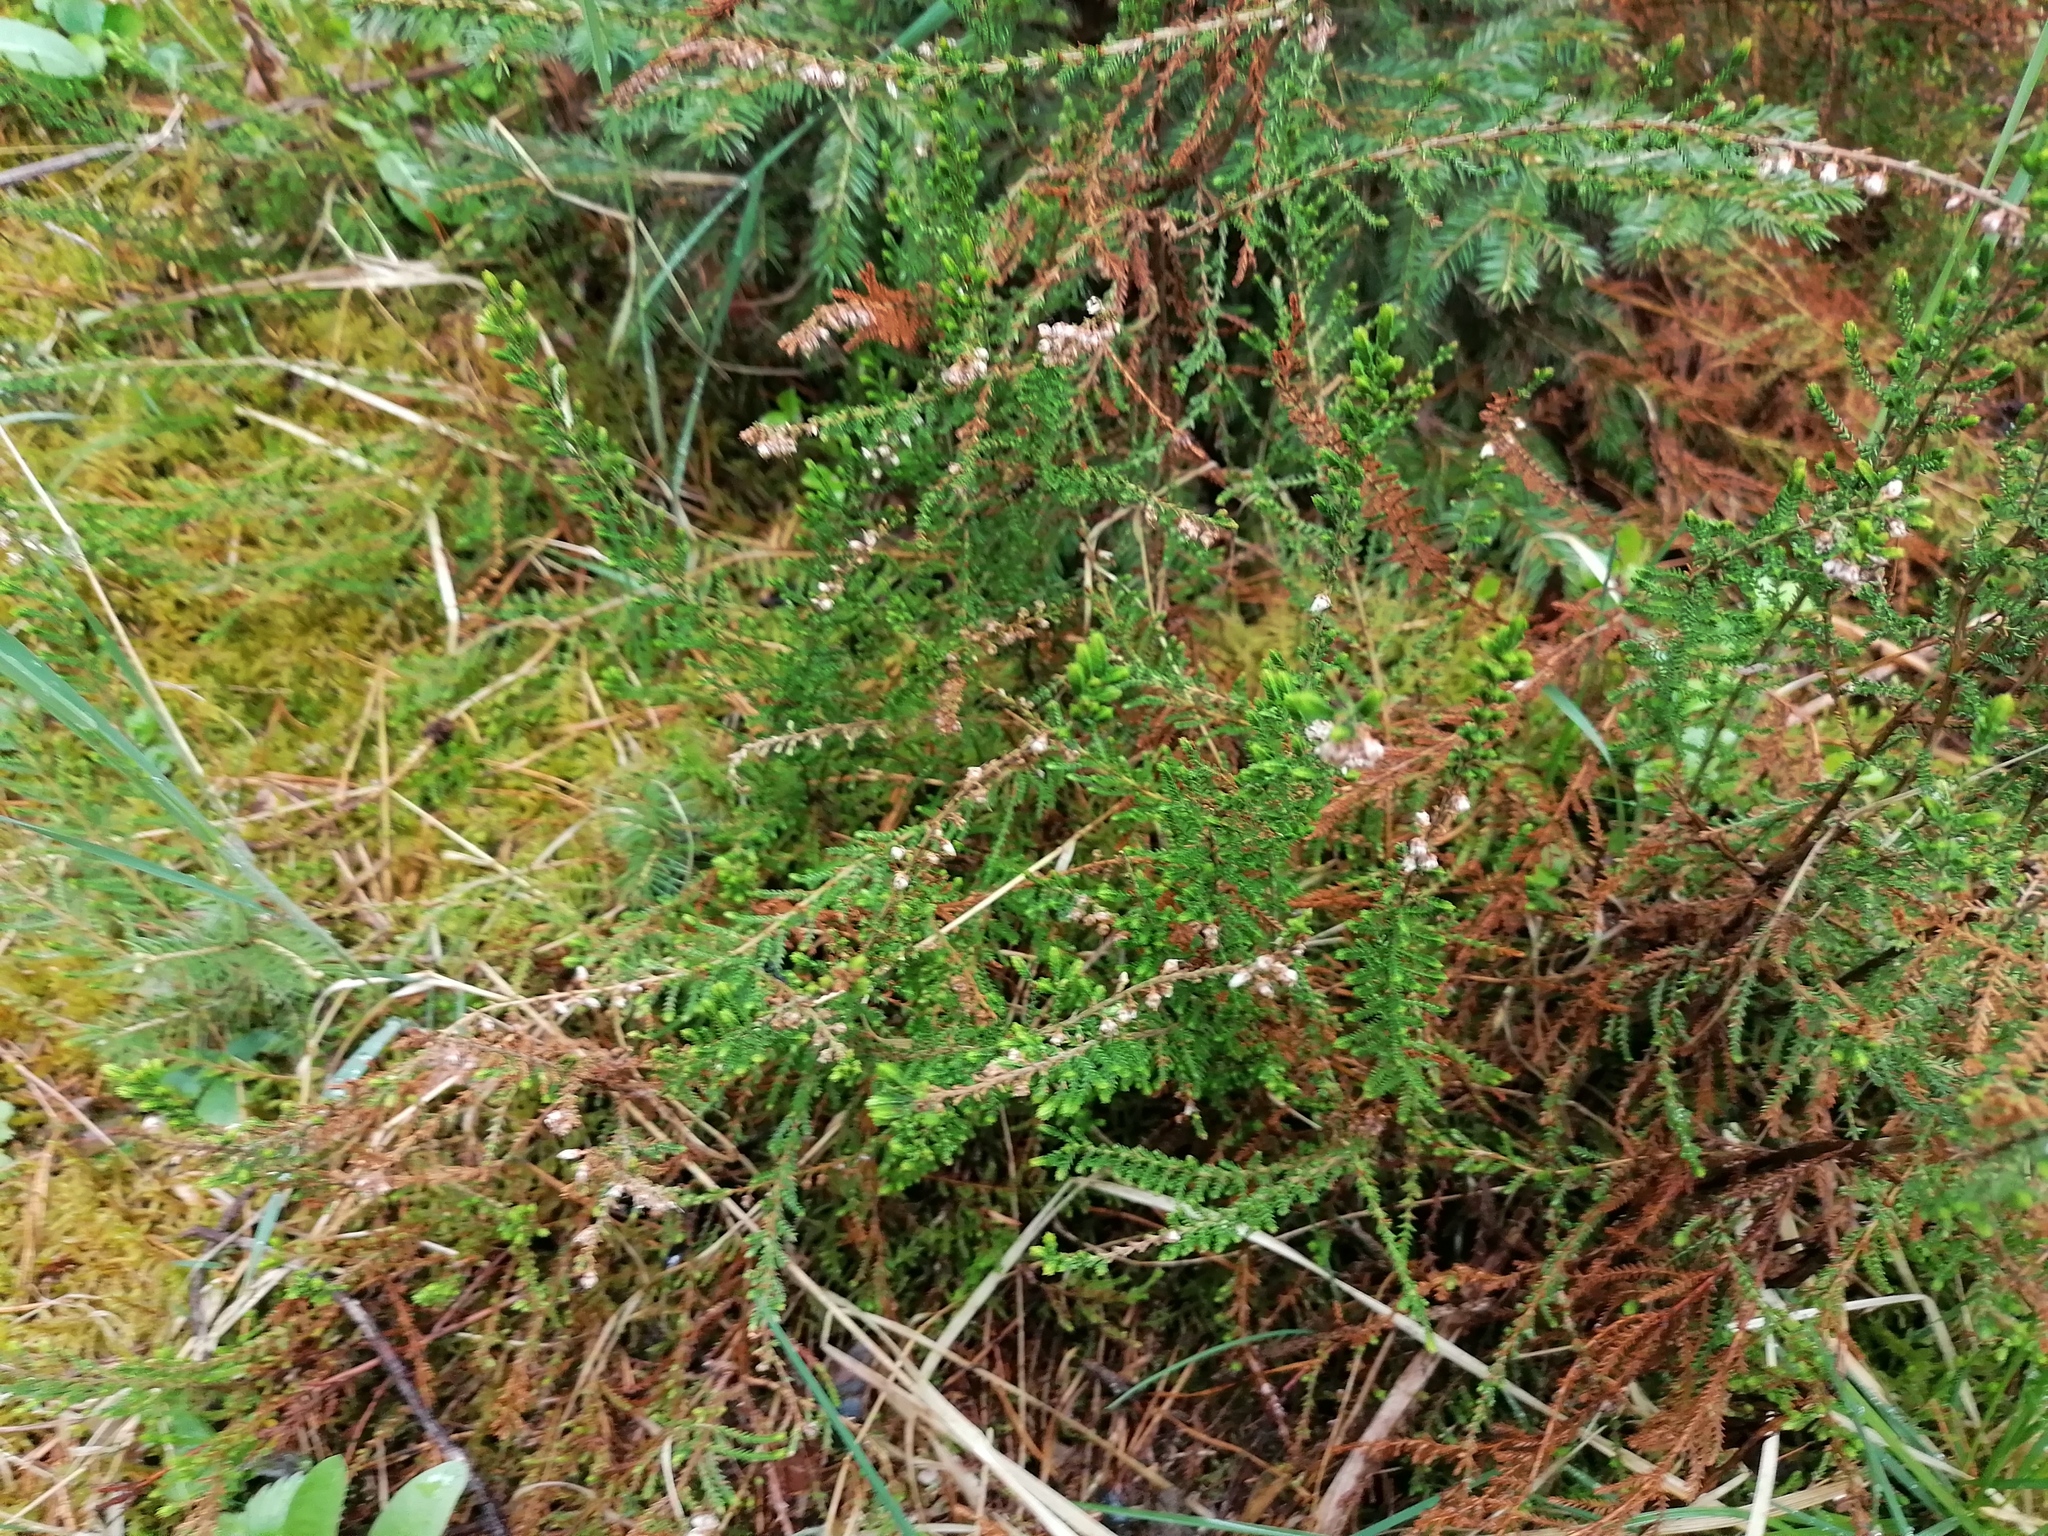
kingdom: Plantae
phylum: Tracheophyta
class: Magnoliopsida
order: Ericales
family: Ericaceae
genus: Calluna
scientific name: Calluna vulgaris
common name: Heather
